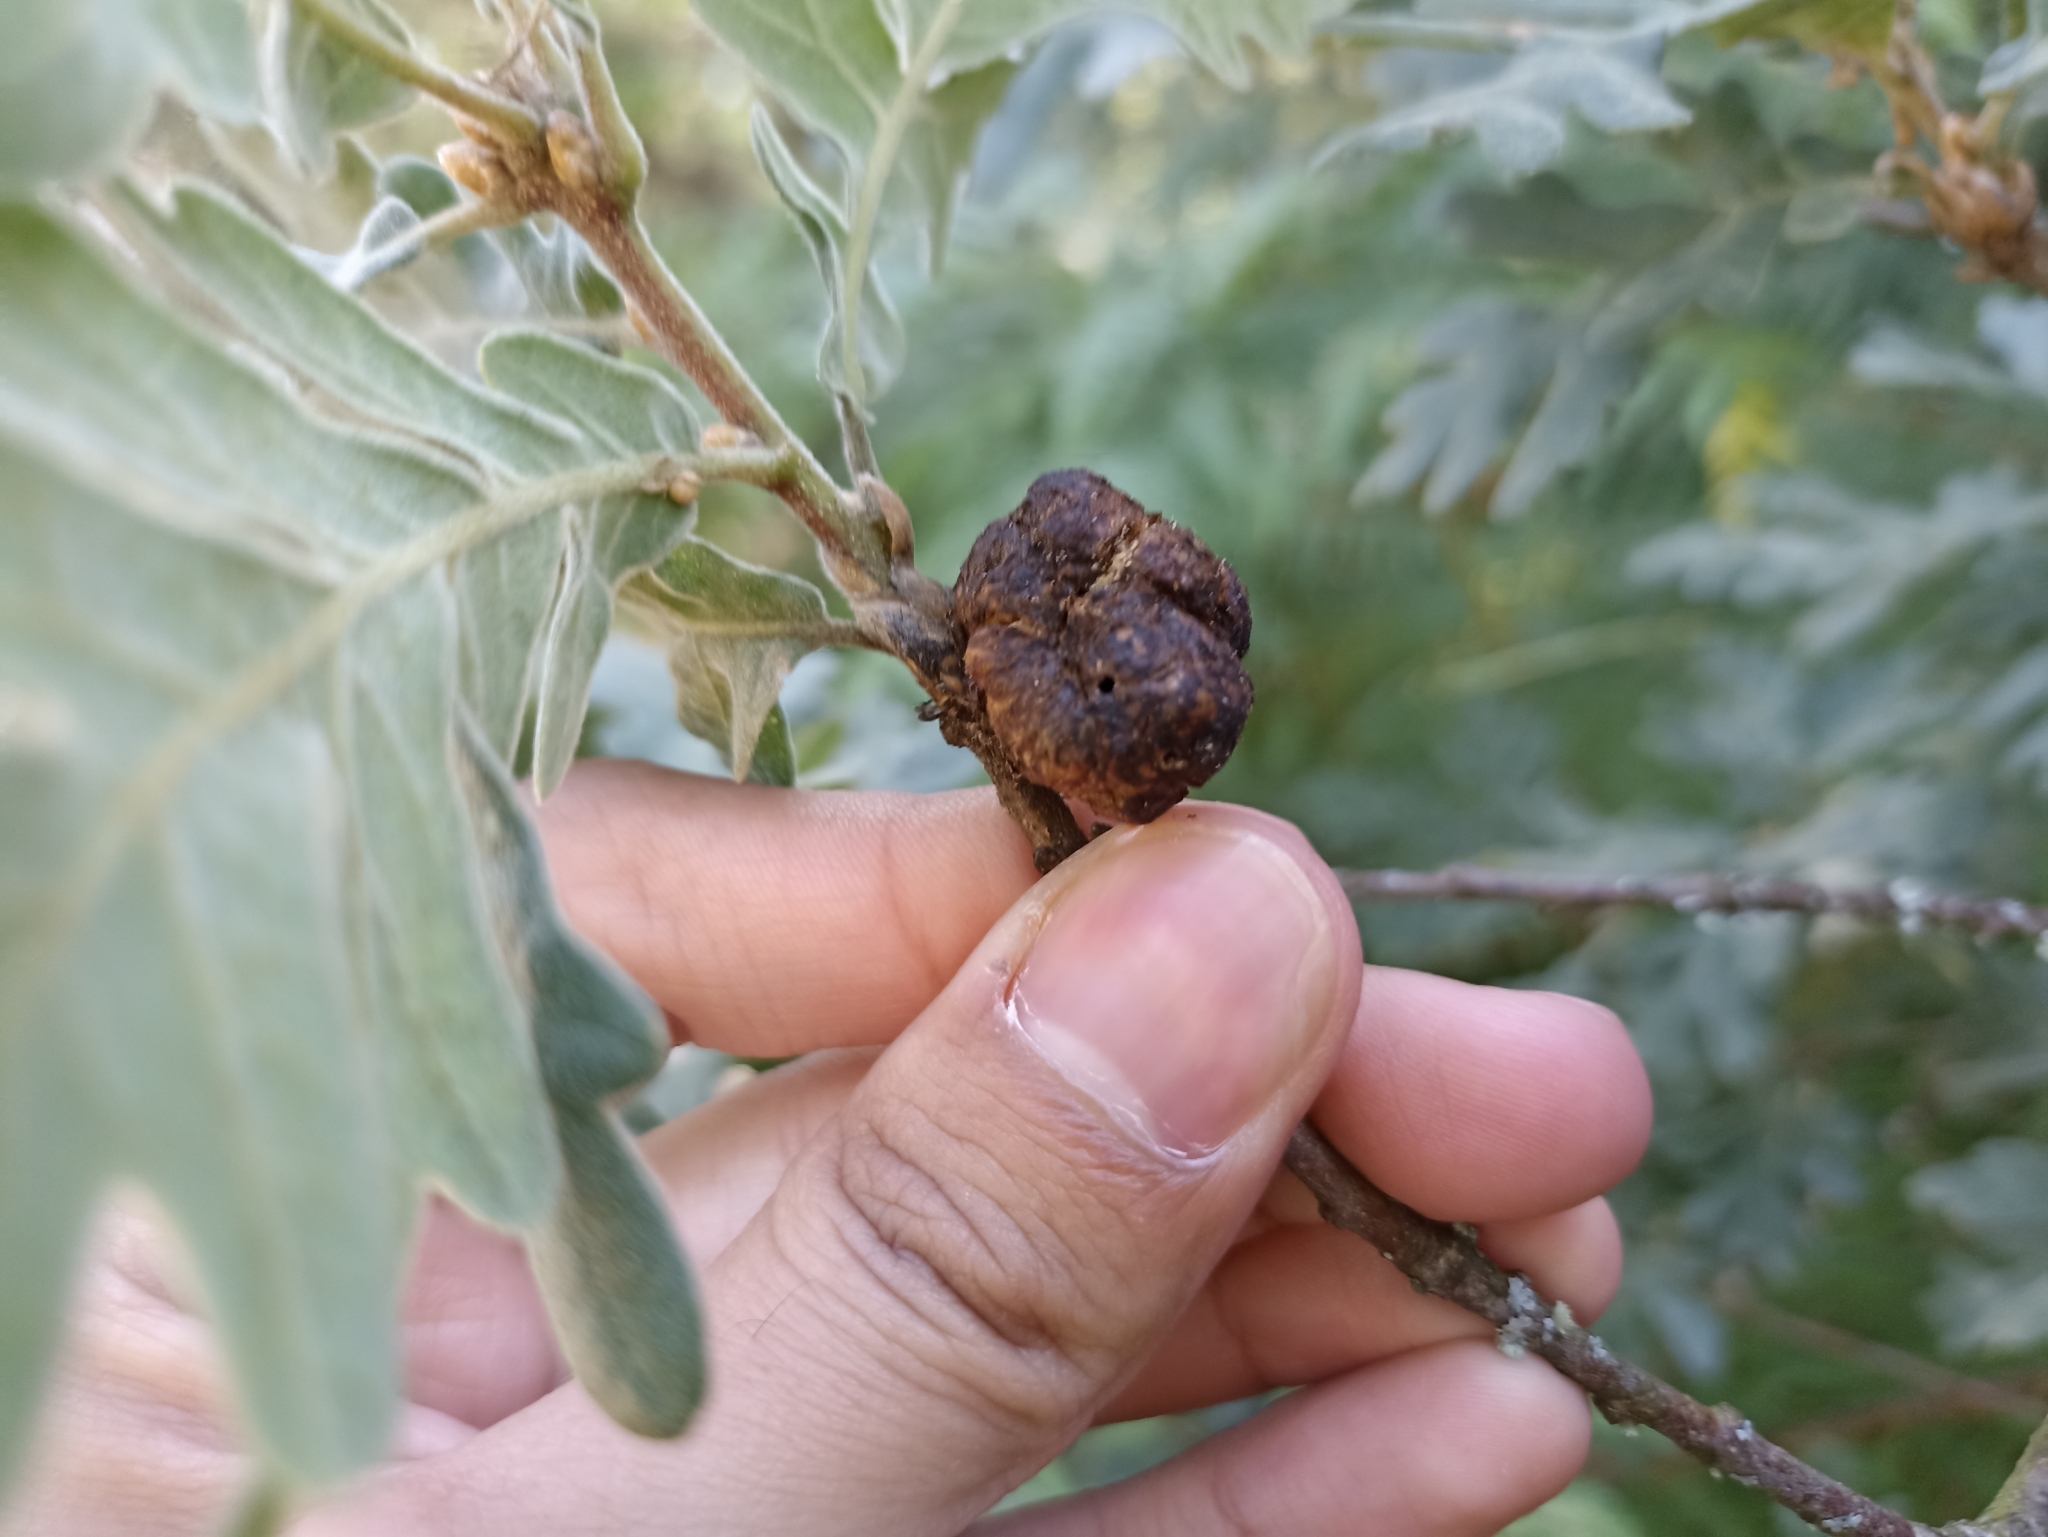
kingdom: Animalia
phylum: Arthropoda
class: Insecta
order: Hymenoptera
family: Cynipidae
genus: Biorhiza
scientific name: Biorhiza pallida
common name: Oak apple
